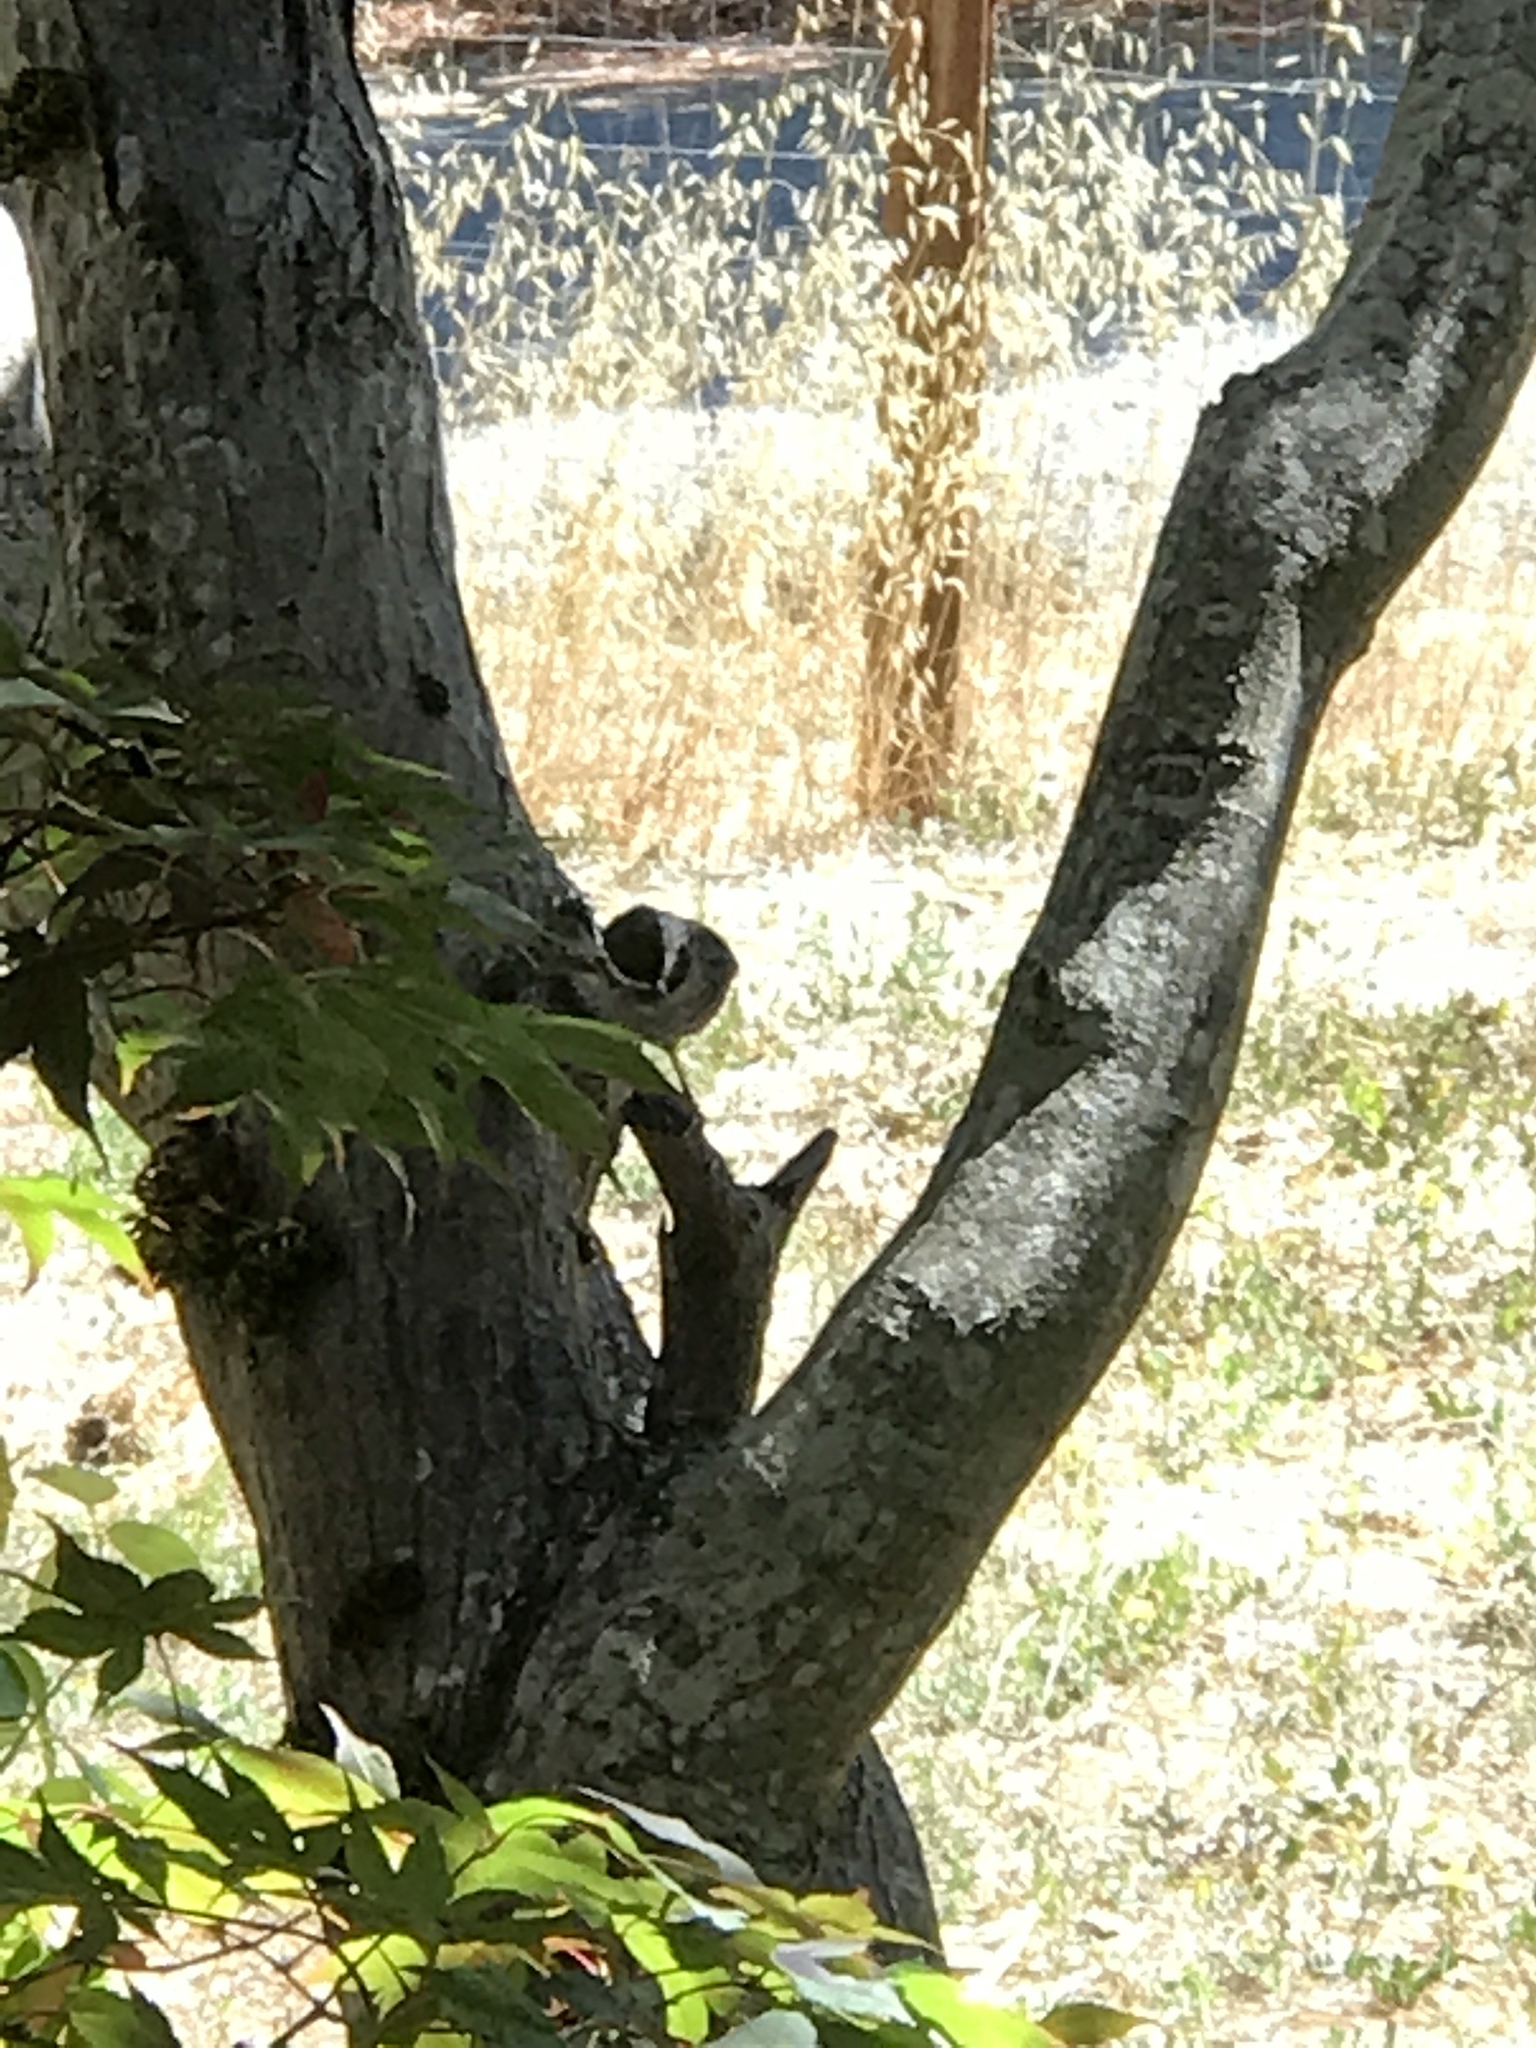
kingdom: Animalia
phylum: Chordata
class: Aves
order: Passeriformes
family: Paridae
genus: Poecile
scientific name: Poecile rufescens
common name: Chestnut-backed chickadee
